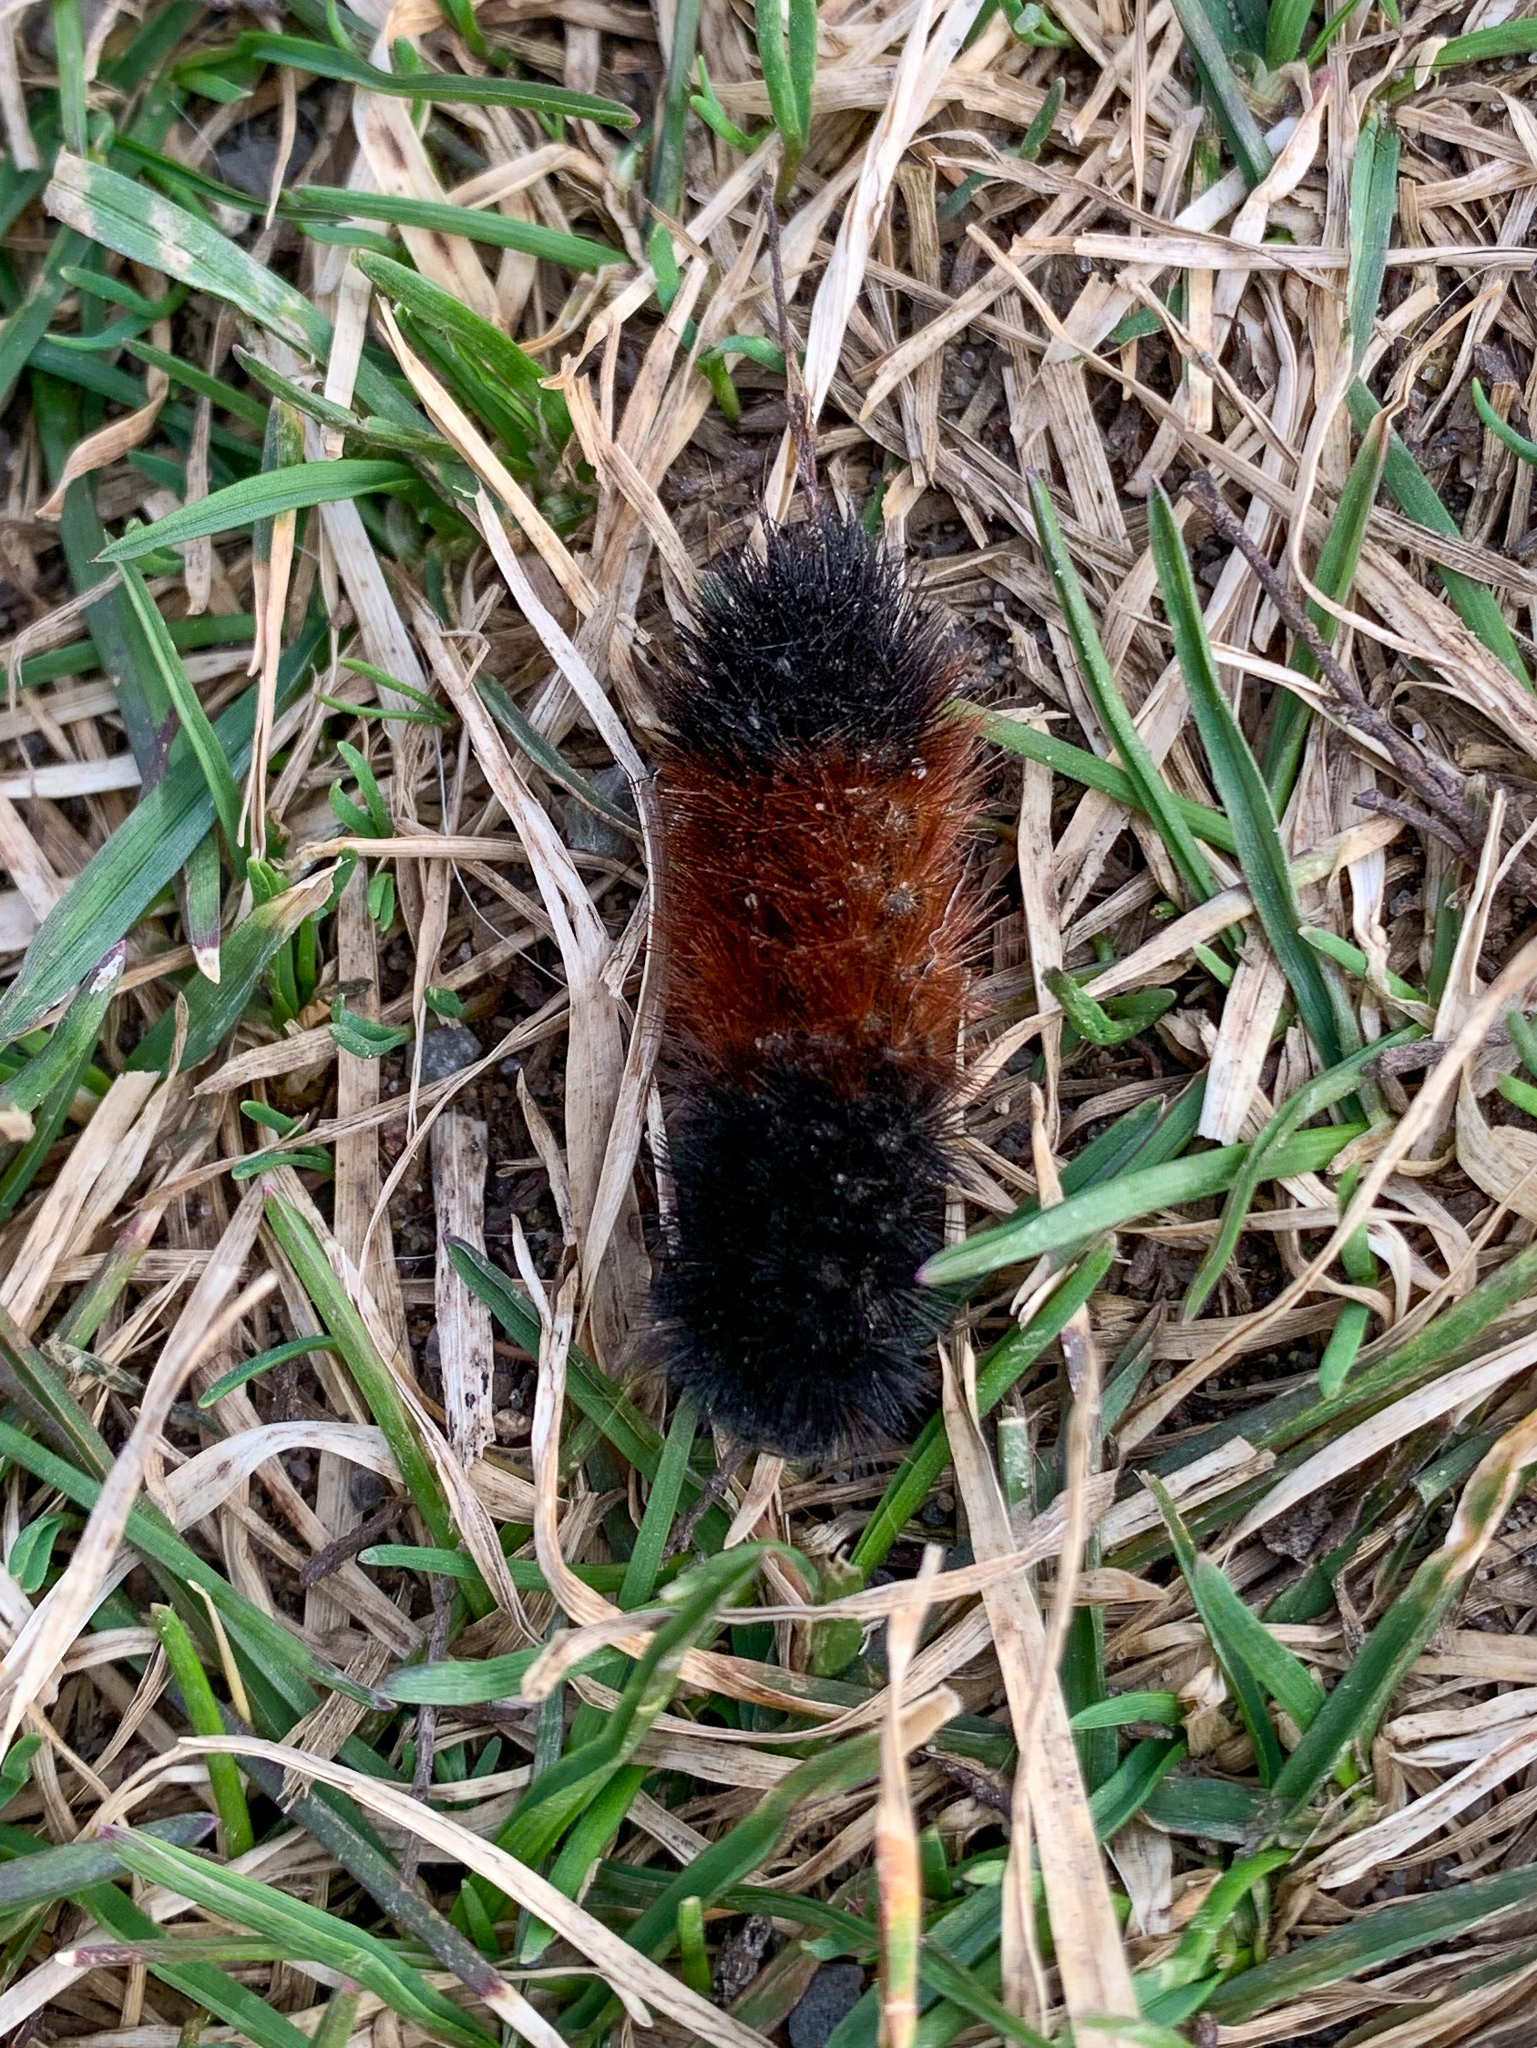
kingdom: Animalia
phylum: Arthropoda
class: Insecta
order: Lepidoptera
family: Erebidae
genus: Pyrrharctia
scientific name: Pyrrharctia isabella
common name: Isabella tiger moth
